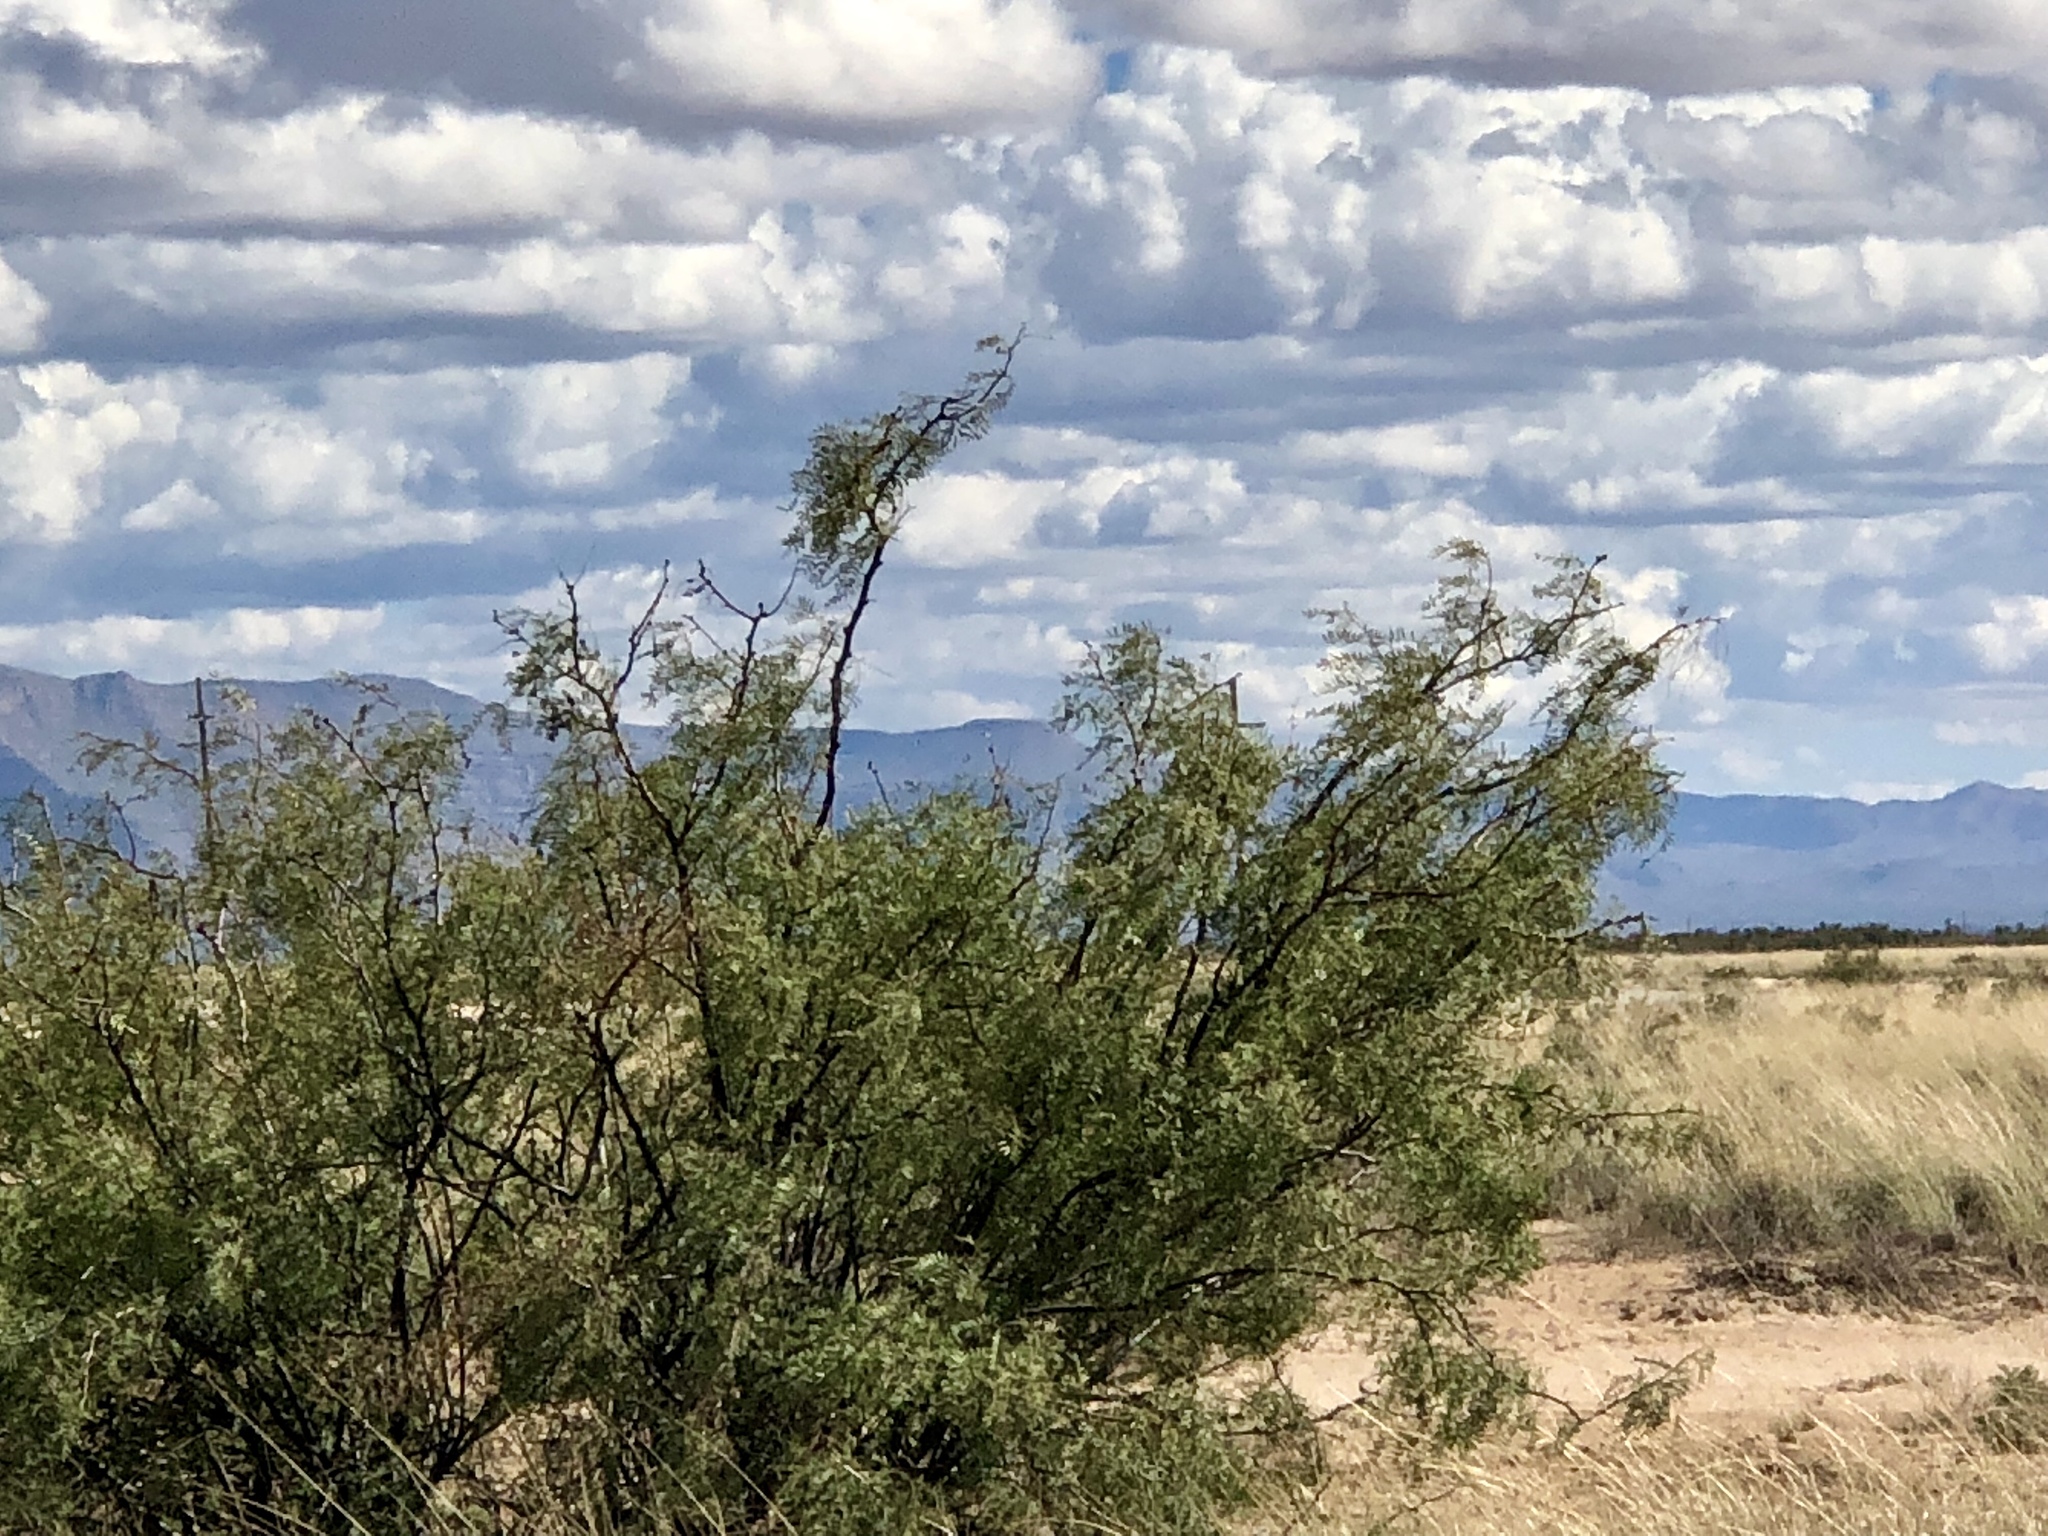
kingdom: Plantae
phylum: Tracheophyta
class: Magnoliopsida
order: Fabales
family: Fabaceae
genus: Prosopis
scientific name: Prosopis glandulosa
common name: Honey mesquite
